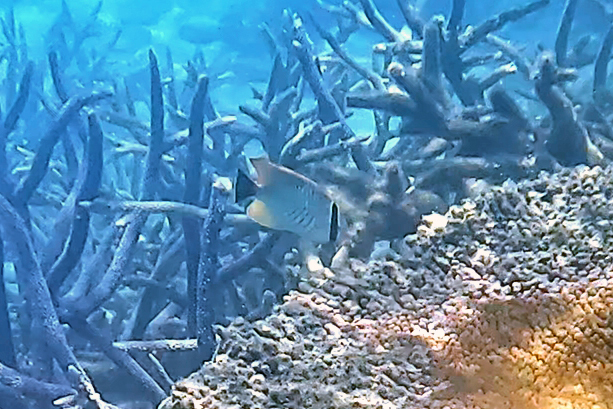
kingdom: Animalia
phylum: Chordata
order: Perciformes
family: Chaetodontidae
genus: Chaetodon
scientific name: Chaetodon trifascialis
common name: Chevroned butterflyfish
